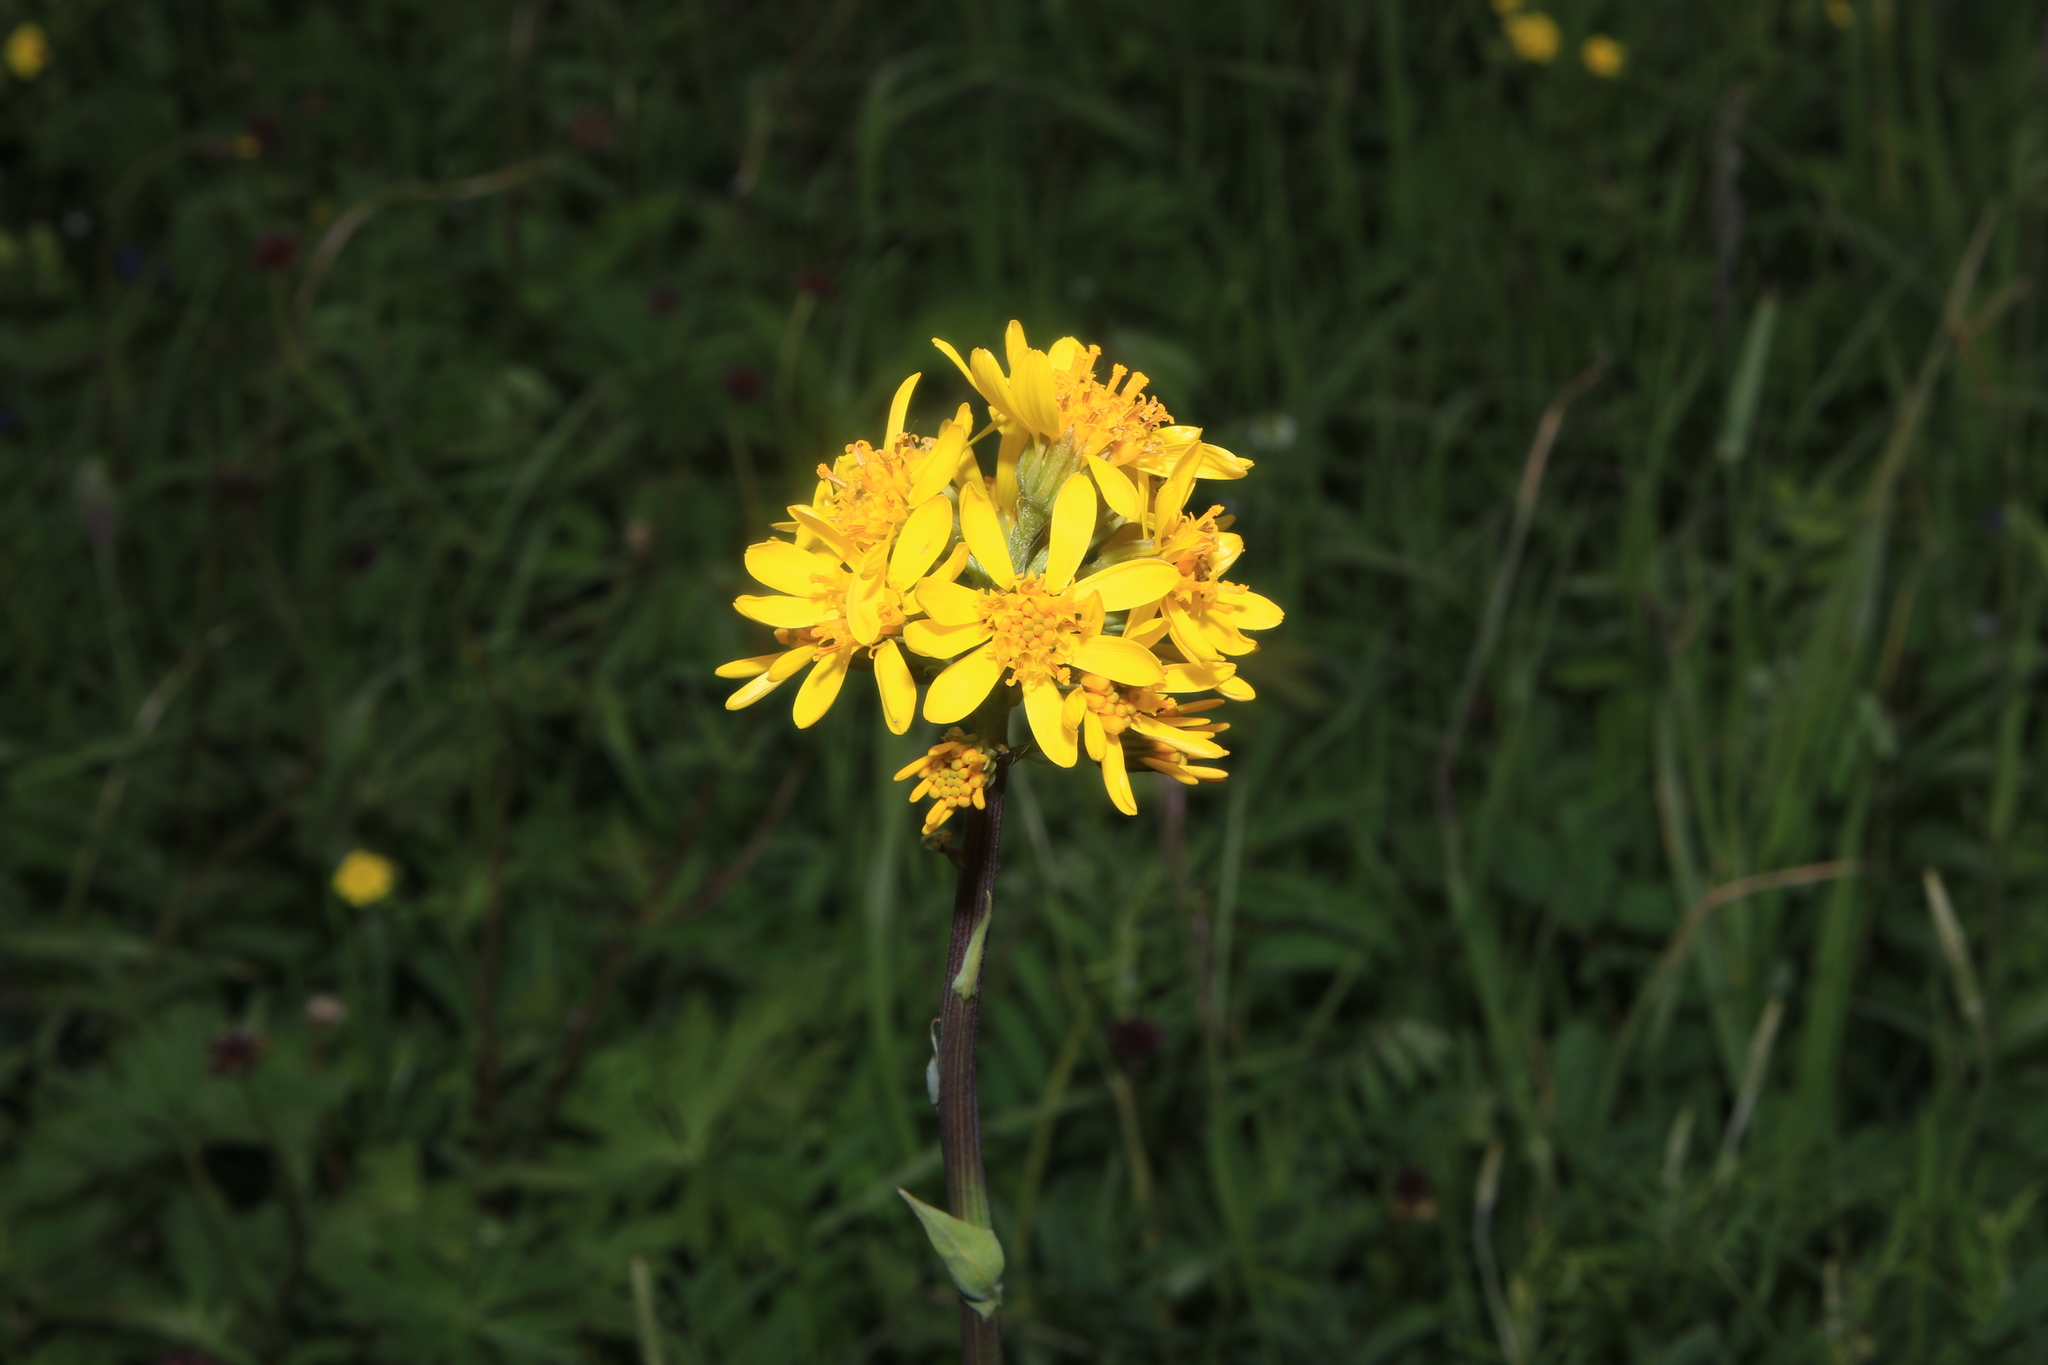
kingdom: Plantae
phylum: Tracheophyta
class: Magnoliopsida
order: Asterales
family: Asteraceae
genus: Ligularia
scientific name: Ligularia glauca
